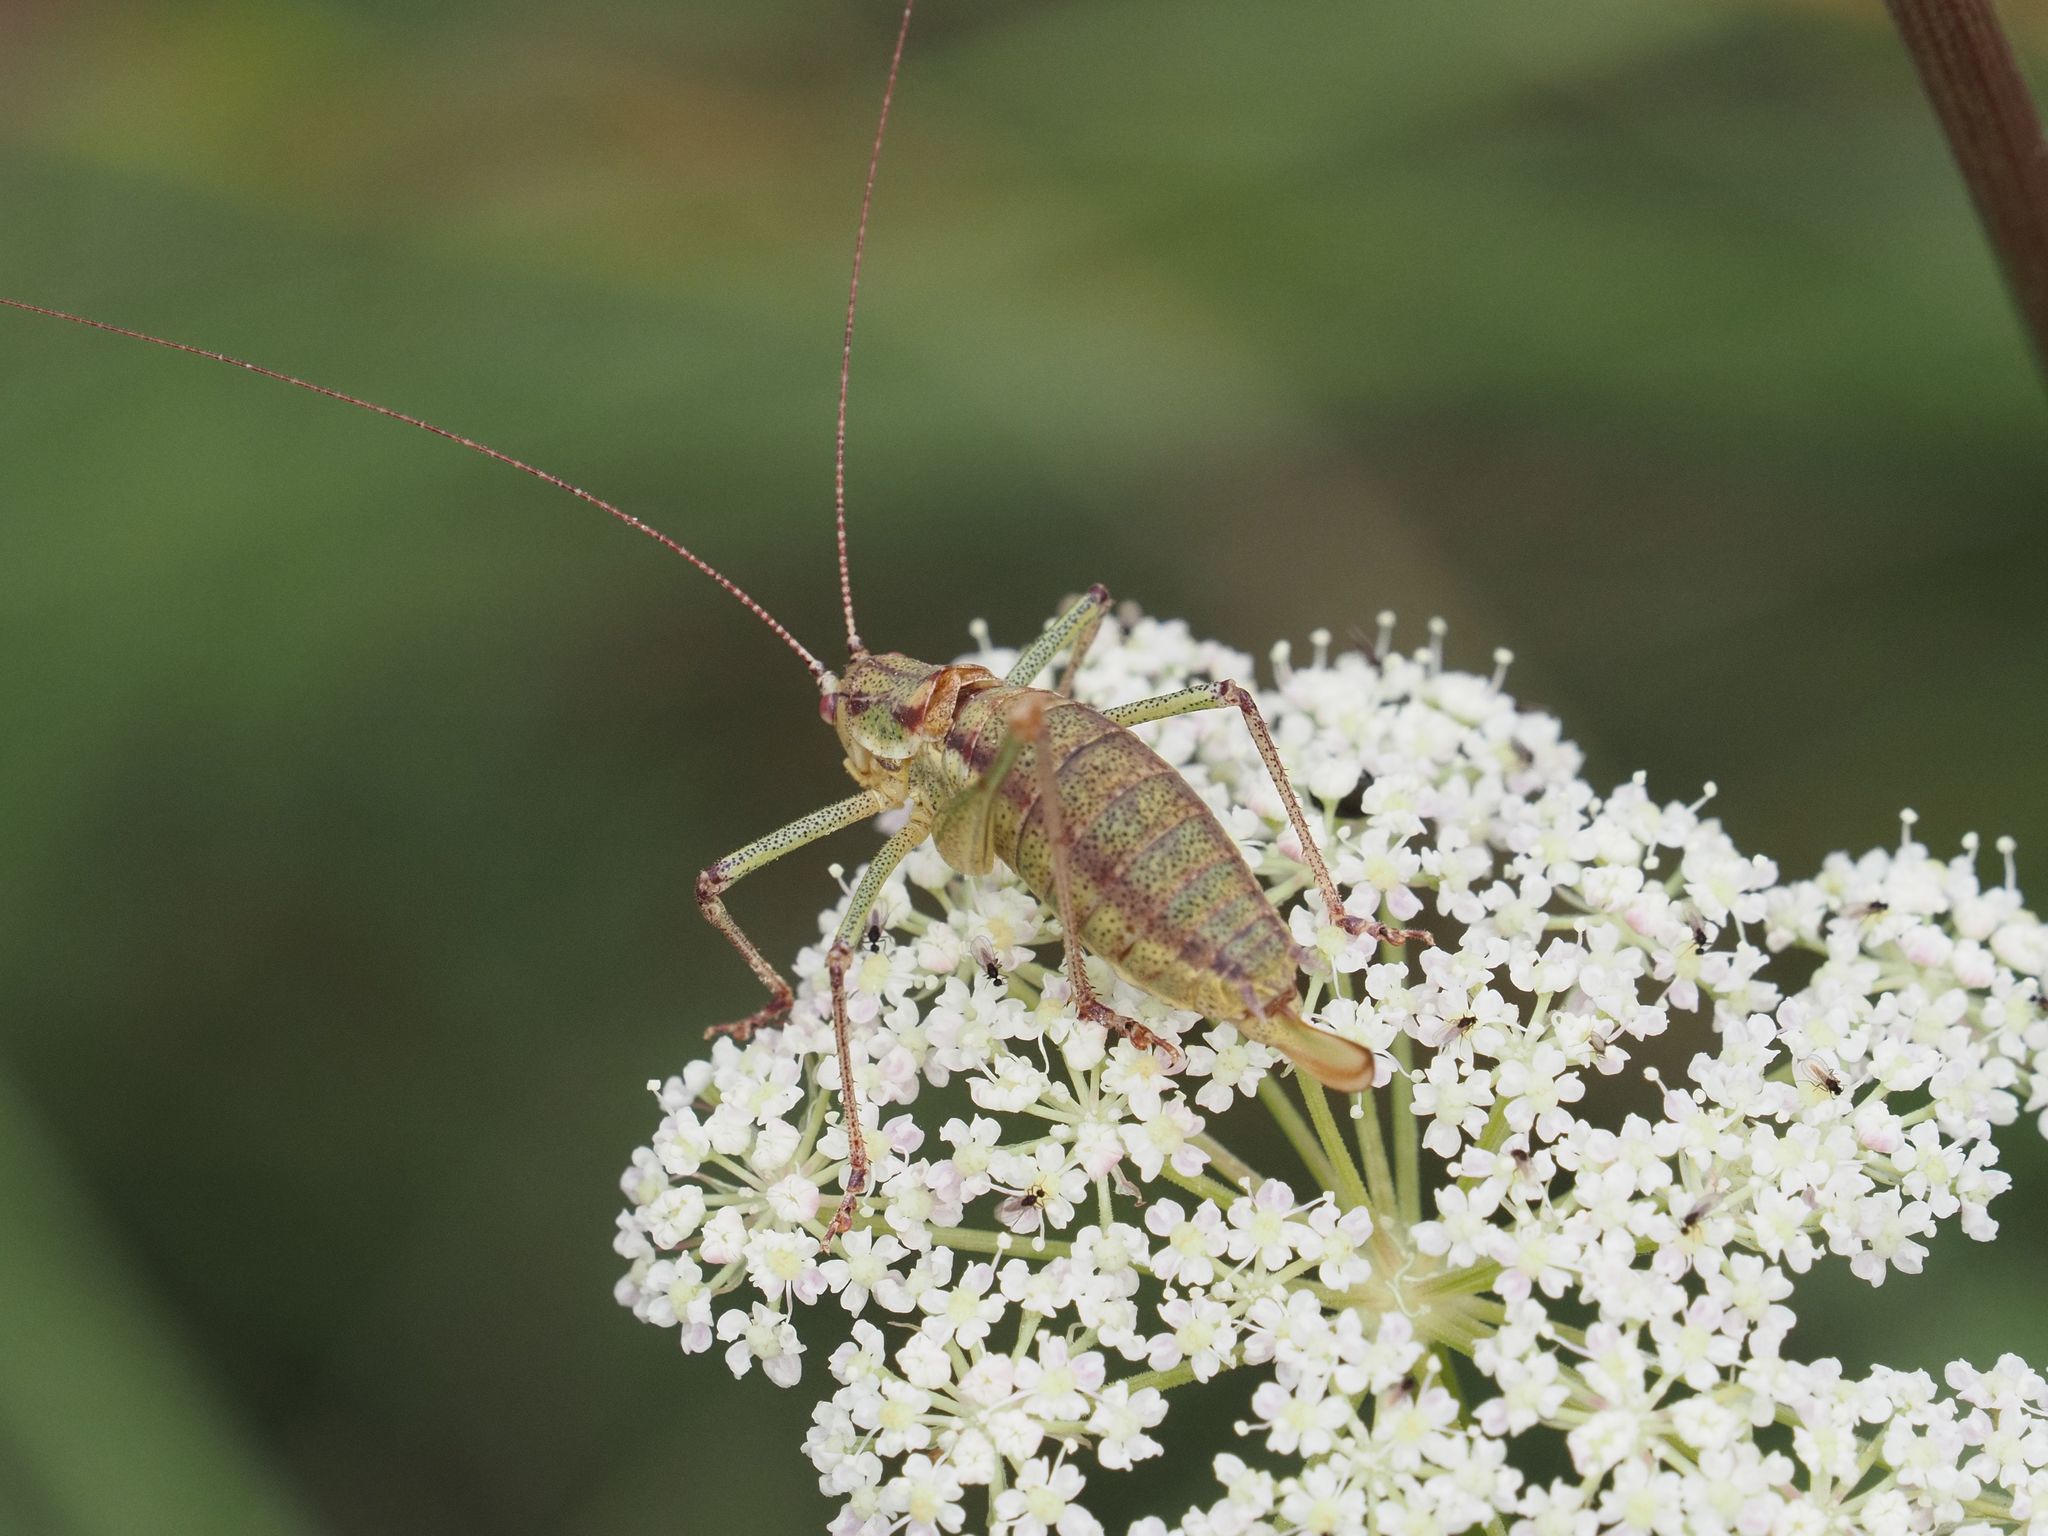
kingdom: Animalia
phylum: Arthropoda
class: Insecta
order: Orthoptera
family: Tettigoniidae
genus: Leptophyes
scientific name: Leptophyes albovittata
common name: Striped bush-cricket
